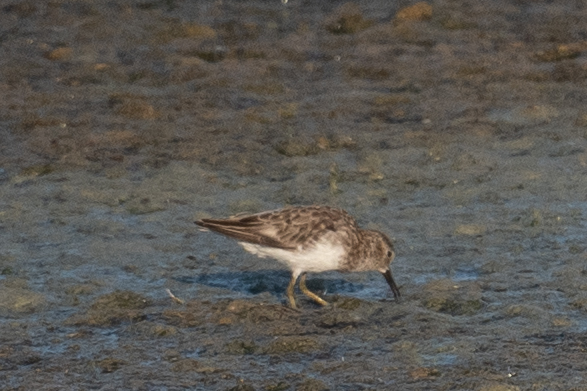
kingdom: Animalia
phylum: Chordata
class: Aves
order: Charadriiformes
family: Scolopacidae
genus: Calidris
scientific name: Calidris minutilla
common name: Least sandpiper
